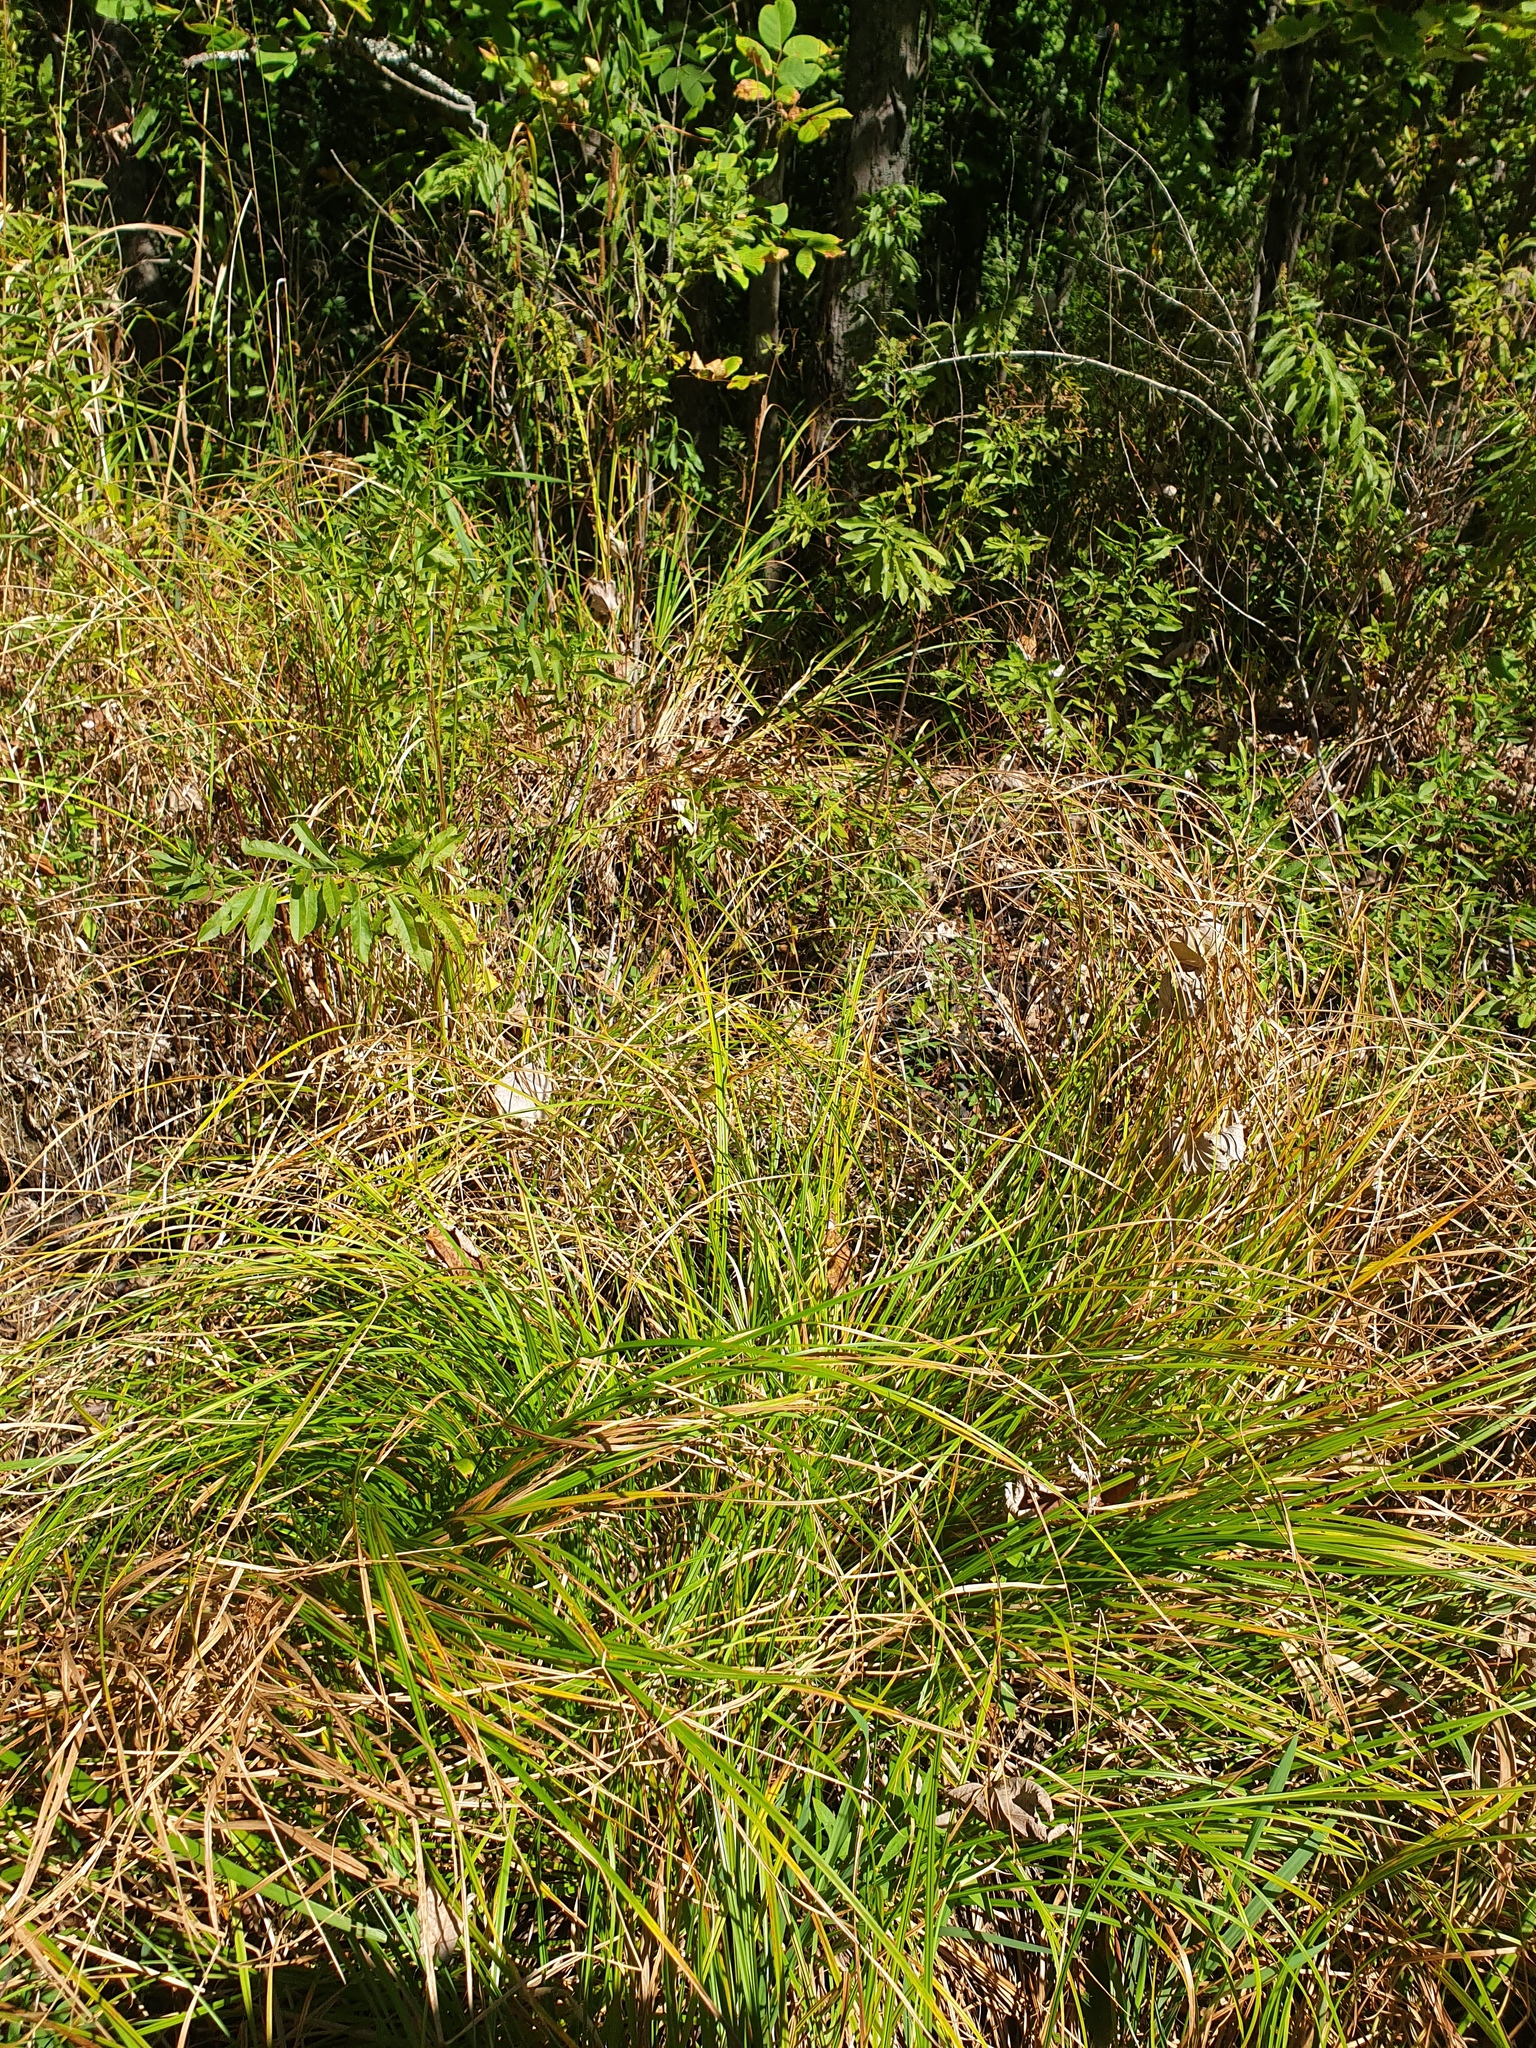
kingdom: Plantae
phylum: Tracheophyta
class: Liliopsida
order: Poales
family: Cyperaceae
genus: Carex
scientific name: Carex vesicaria
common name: Bladder-sedge
